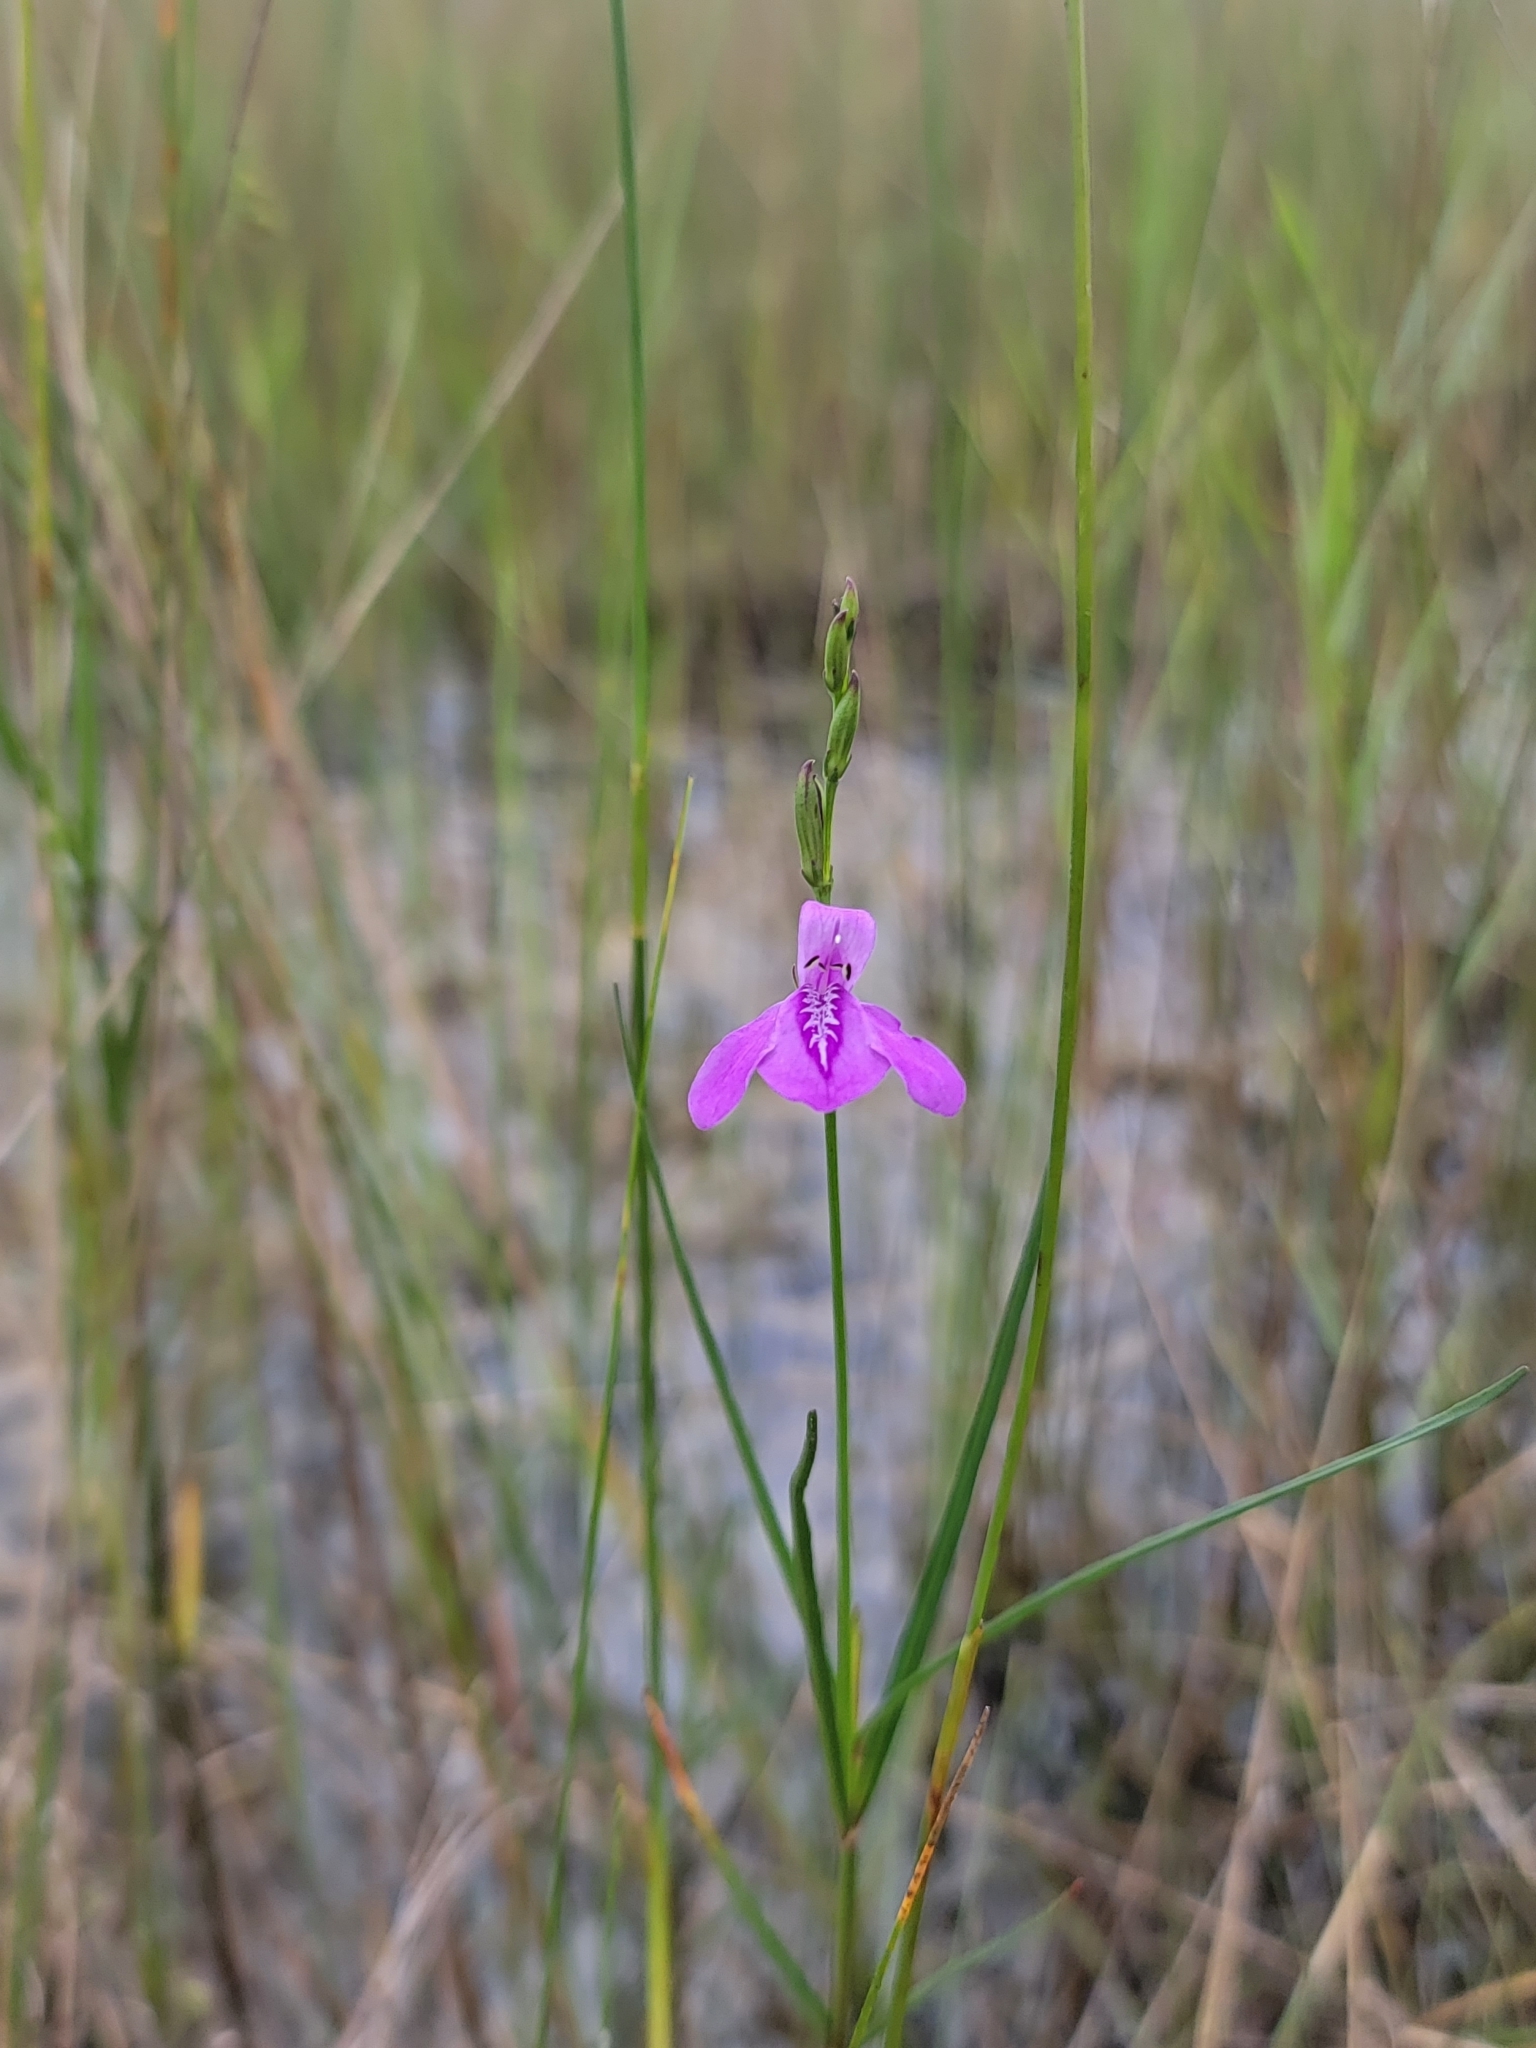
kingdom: Plantae
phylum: Tracheophyta
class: Magnoliopsida
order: Lamiales
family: Acanthaceae
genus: Dianthera
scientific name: Dianthera angusta
